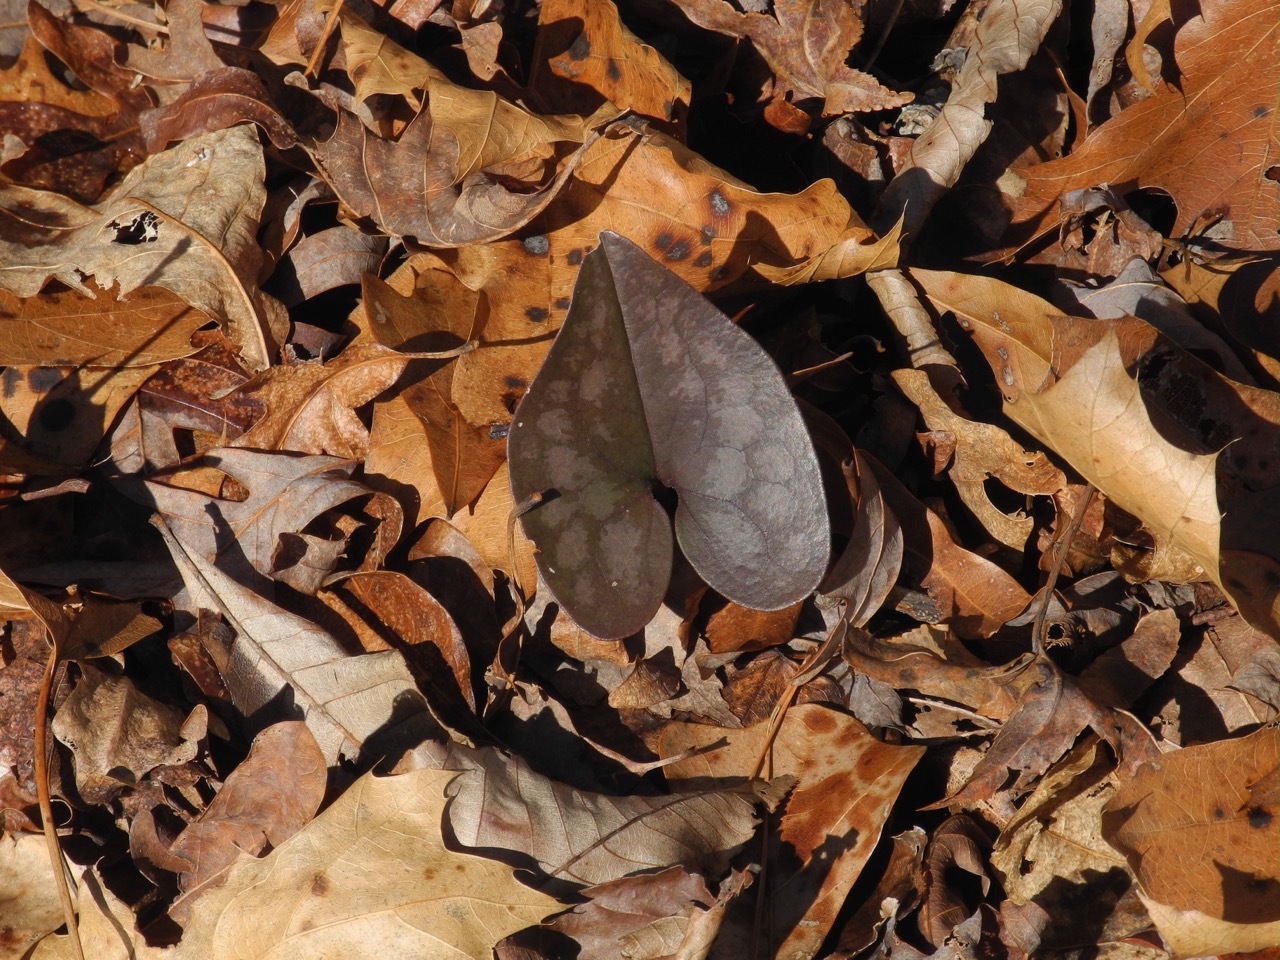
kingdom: Plantae
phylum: Tracheophyta
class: Magnoliopsida
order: Piperales
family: Aristolochiaceae
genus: Hexastylis
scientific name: Hexastylis arifolia
